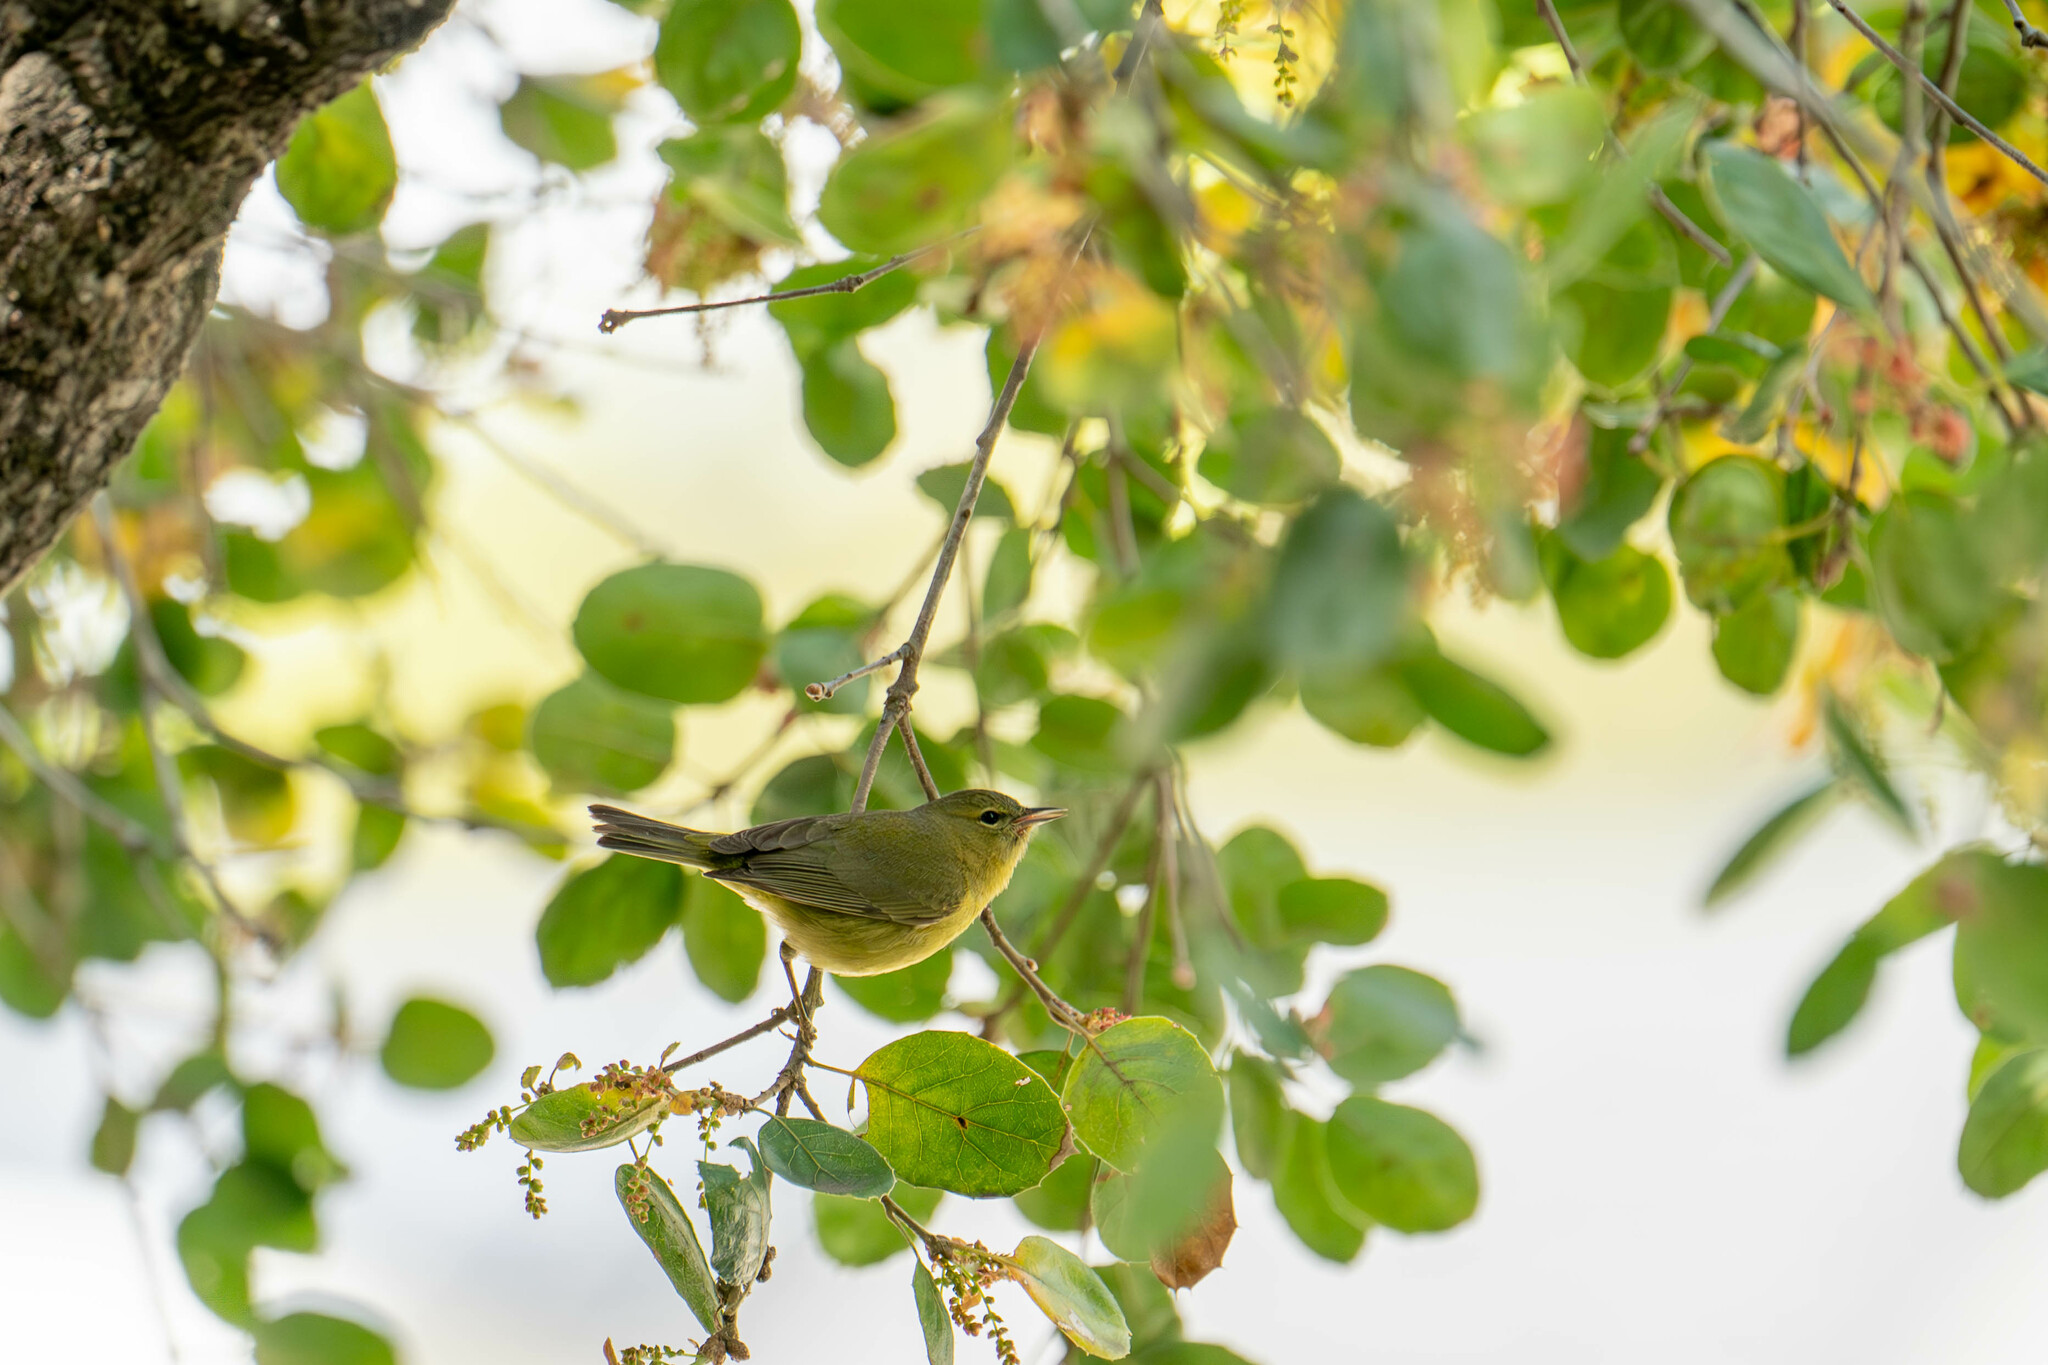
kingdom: Animalia
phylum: Chordata
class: Aves
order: Passeriformes
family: Parulidae
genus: Leiothlypis
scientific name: Leiothlypis celata
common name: Orange-crowned warbler
